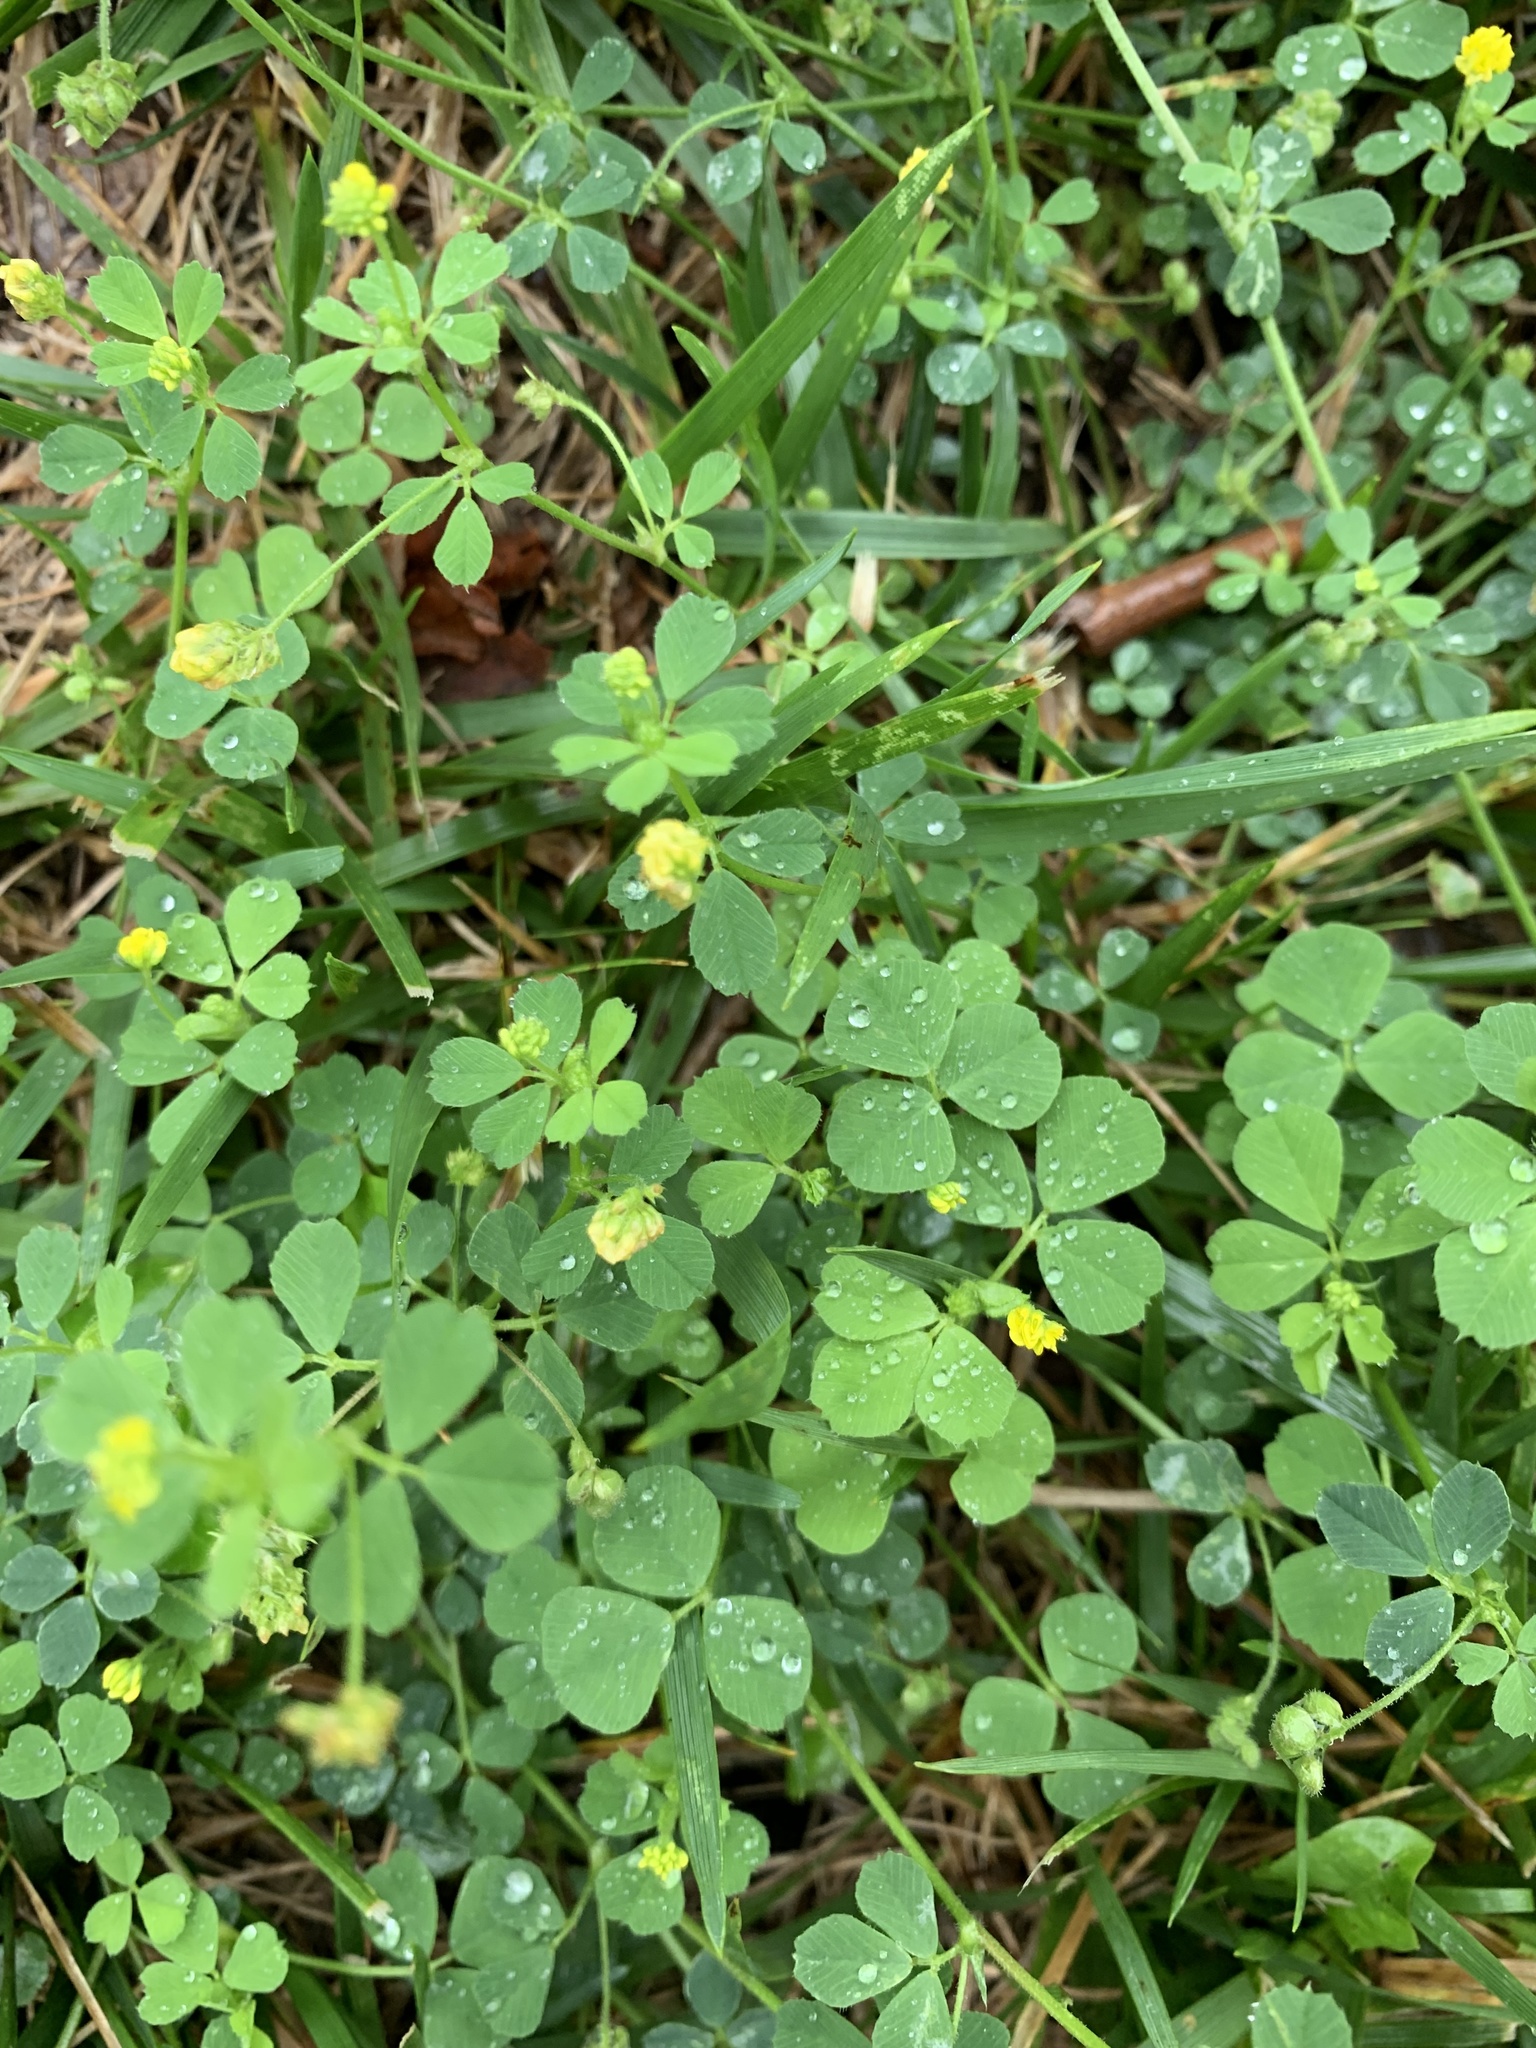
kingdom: Plantae
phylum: Tracheophyta
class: Magnoliopsida
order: Fabales
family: Fabaceae
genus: Medicago
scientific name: Medicago lupulina
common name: Black medick
